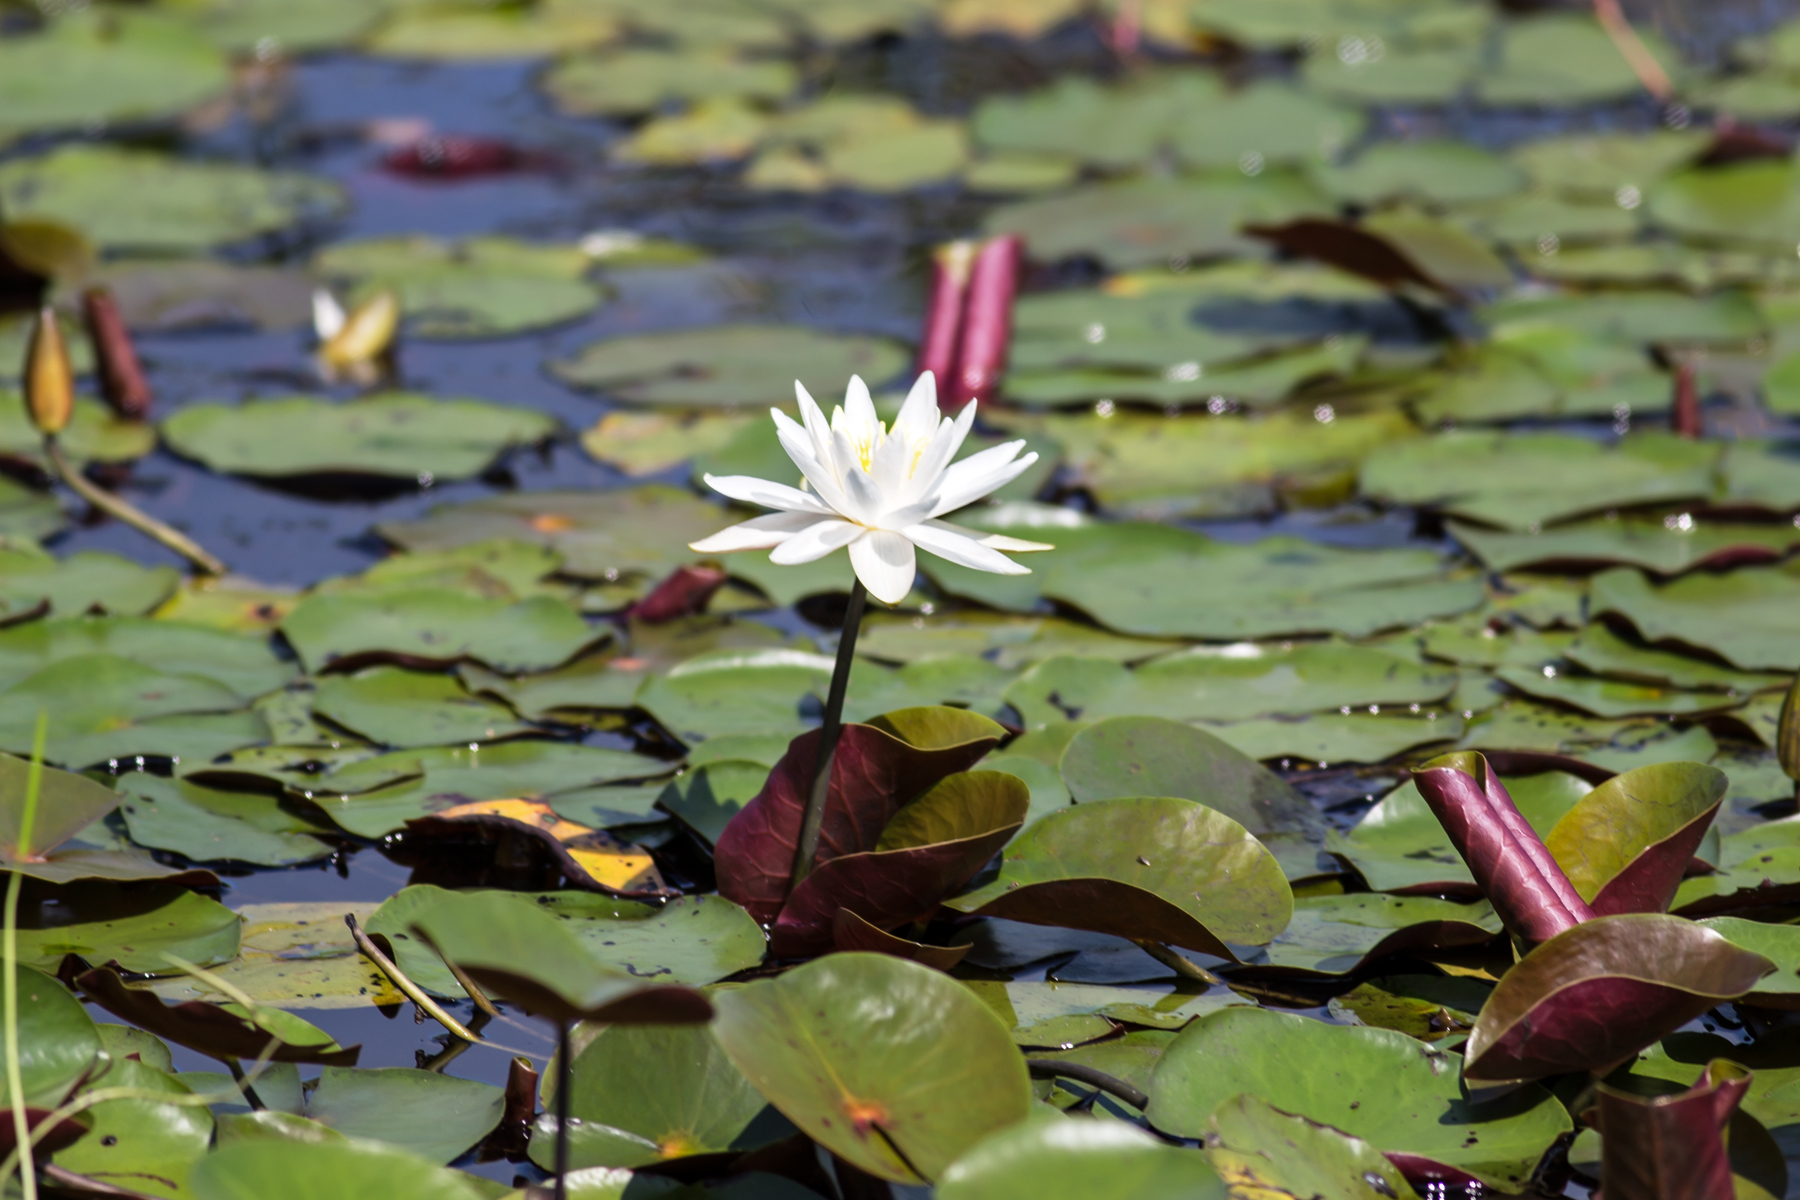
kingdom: Plantae
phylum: Tracheophyta
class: Magnoliopsida
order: Nymphaeales
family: Nymphaeaceae
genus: Nymphaea
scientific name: Nymphaea odorata
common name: Fragrant water-lily
